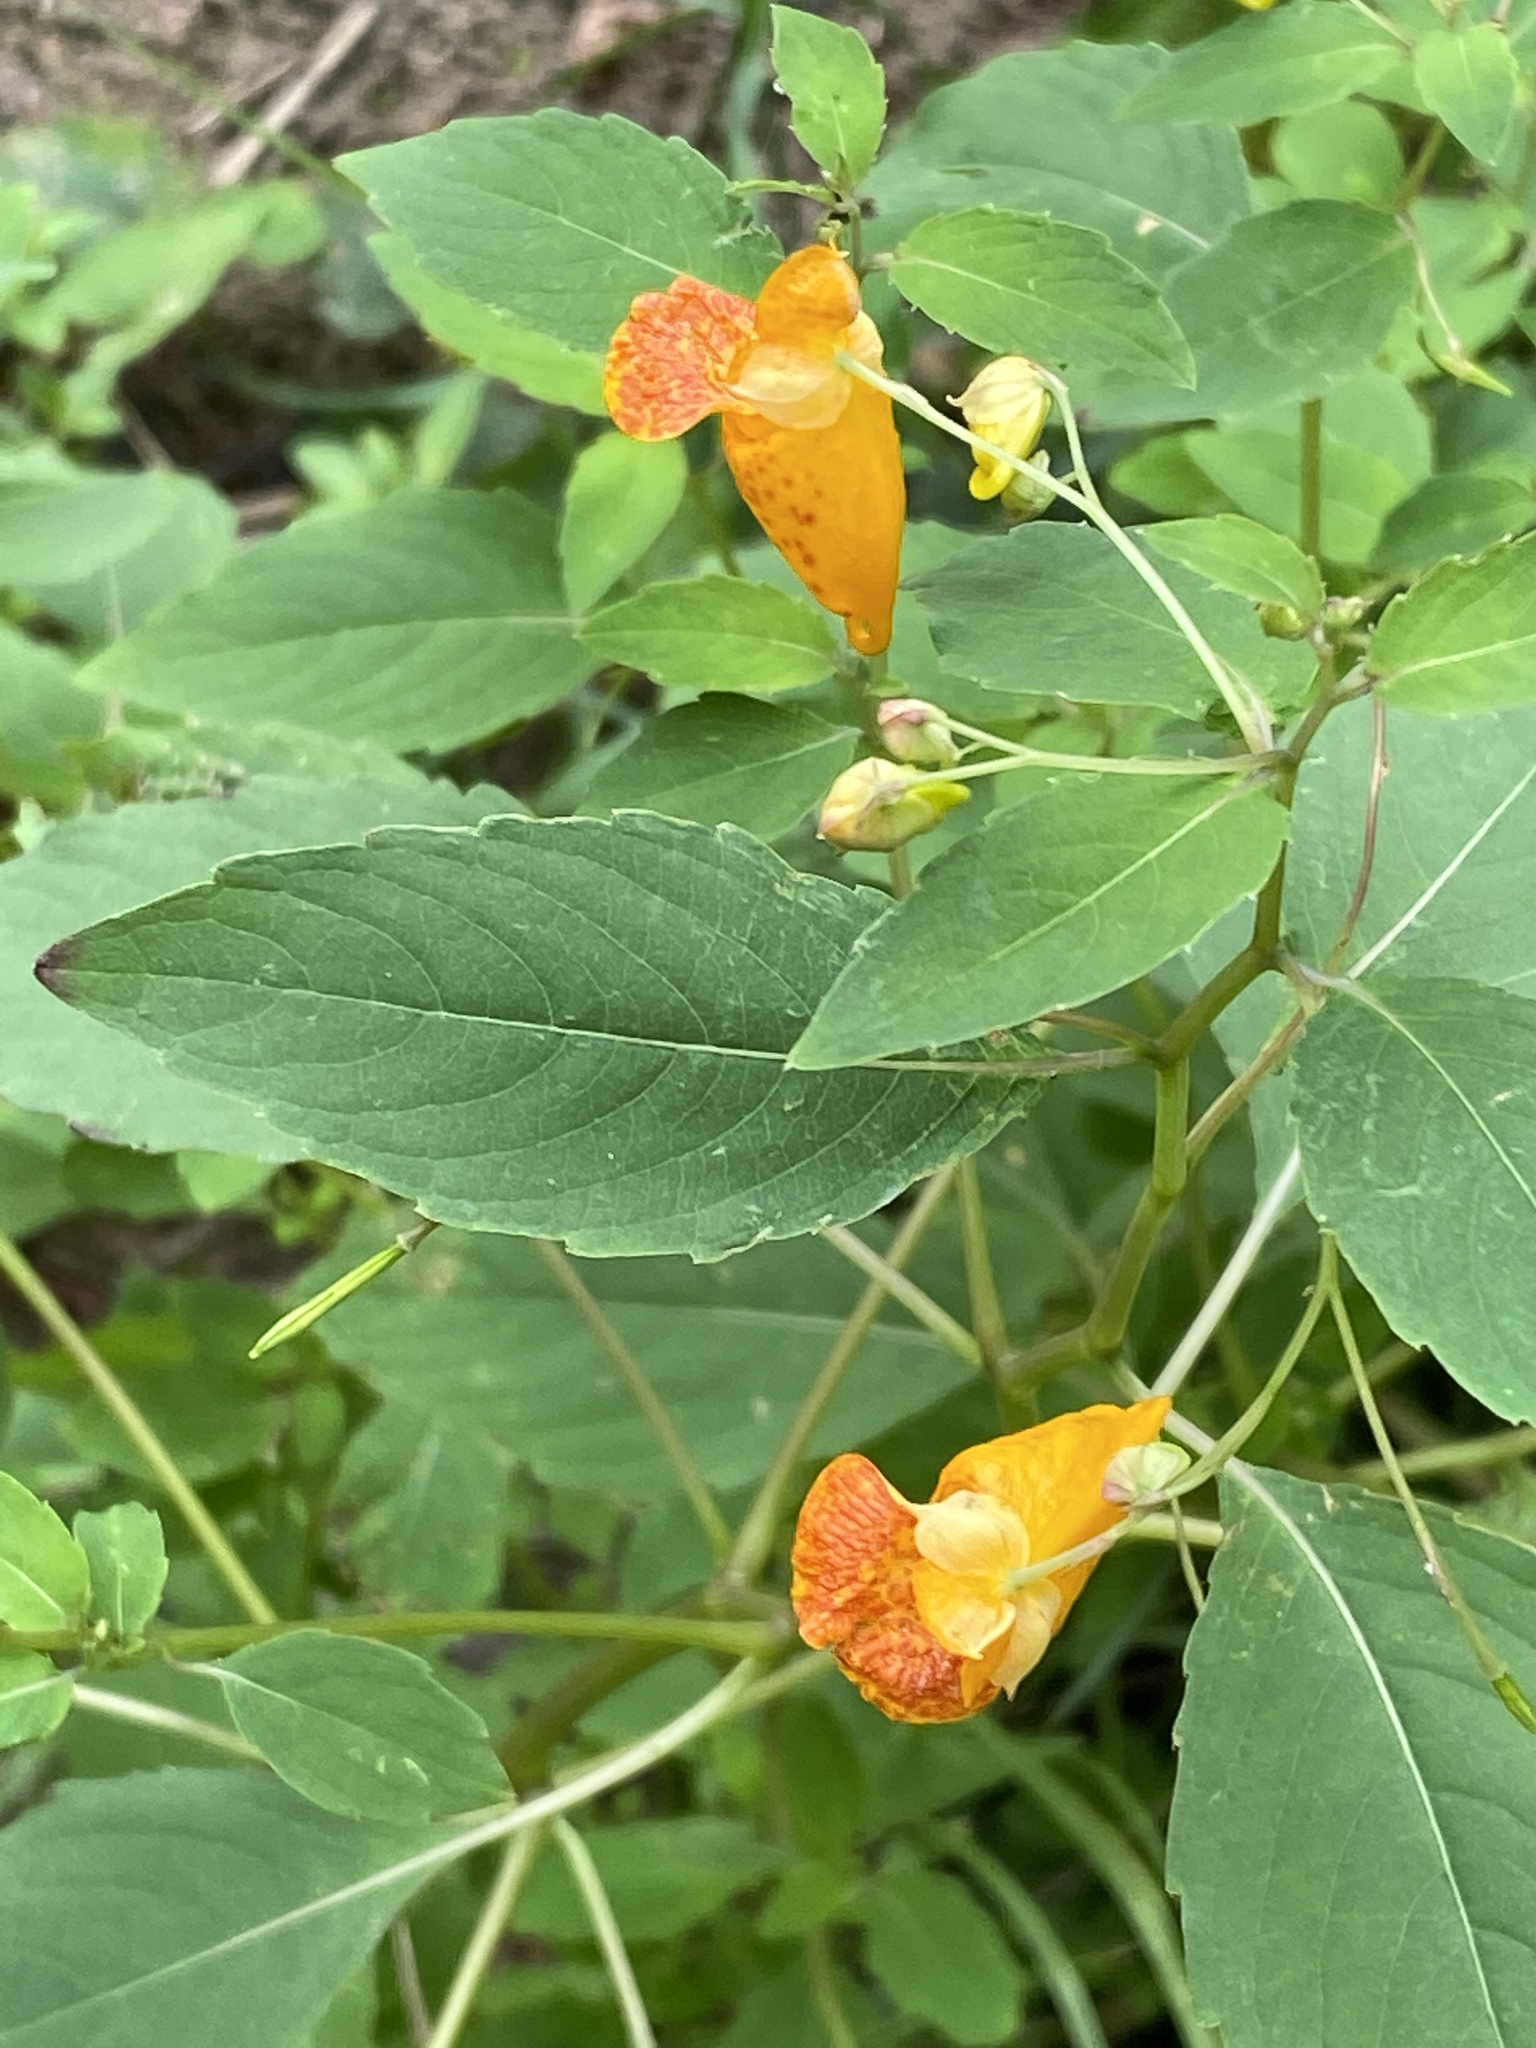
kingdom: Plantae
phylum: Tracheophyta
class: Magnoliopsida
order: Ericales
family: Balsaminaceae
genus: Impatiens
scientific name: Impatiens capensis
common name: Orange balsam
